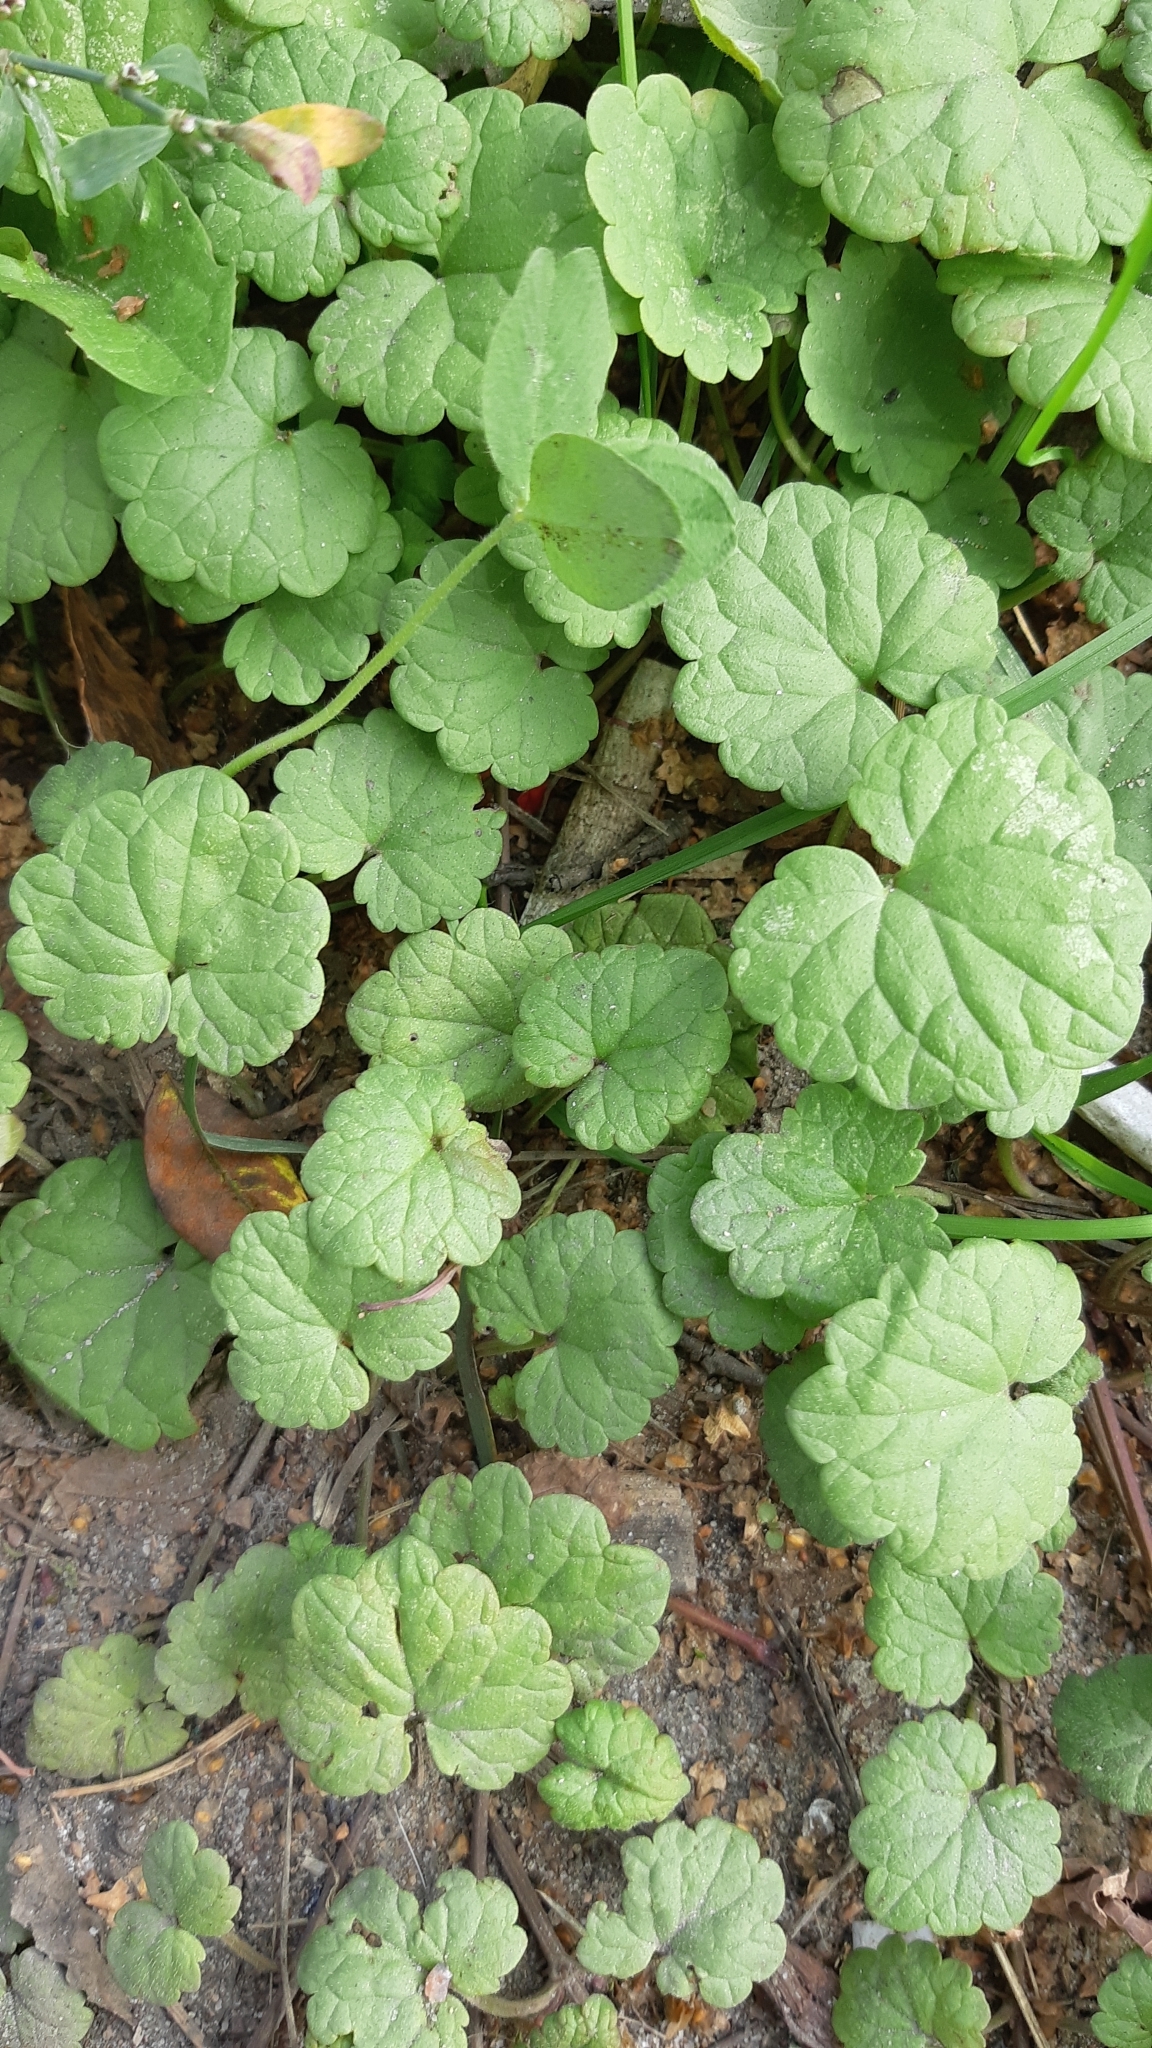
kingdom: Plantae
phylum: Tracheophyta
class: Magnoliopsida
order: Lamiales
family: Lamiaceae
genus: Glechoma
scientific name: Glechoma hederacea
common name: Ground ivy
